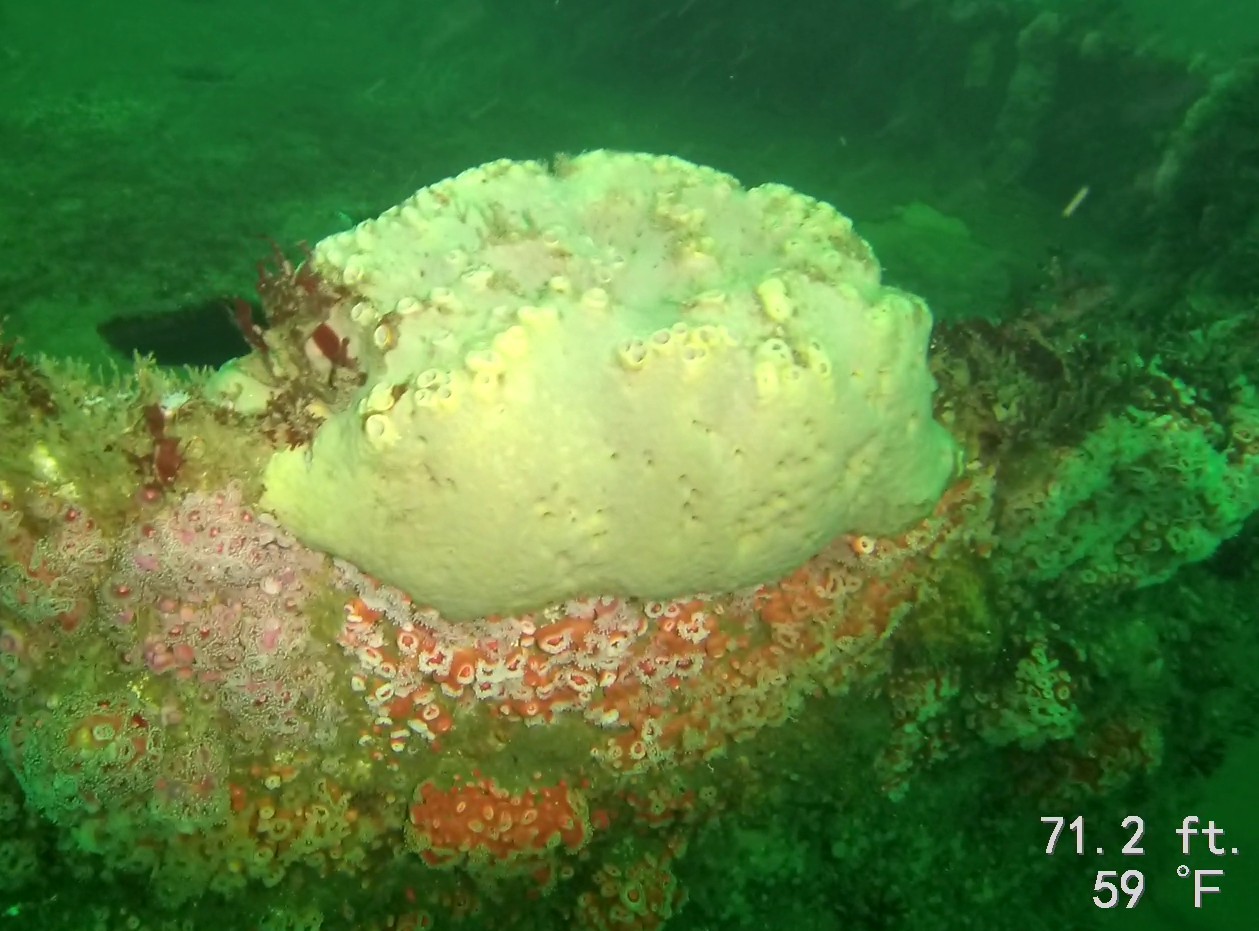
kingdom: Animalia
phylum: Porifera
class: Demospongiae
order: Clionaida
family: Clionaidae
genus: Spheciospongia
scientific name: Spheciospongia confoederata
